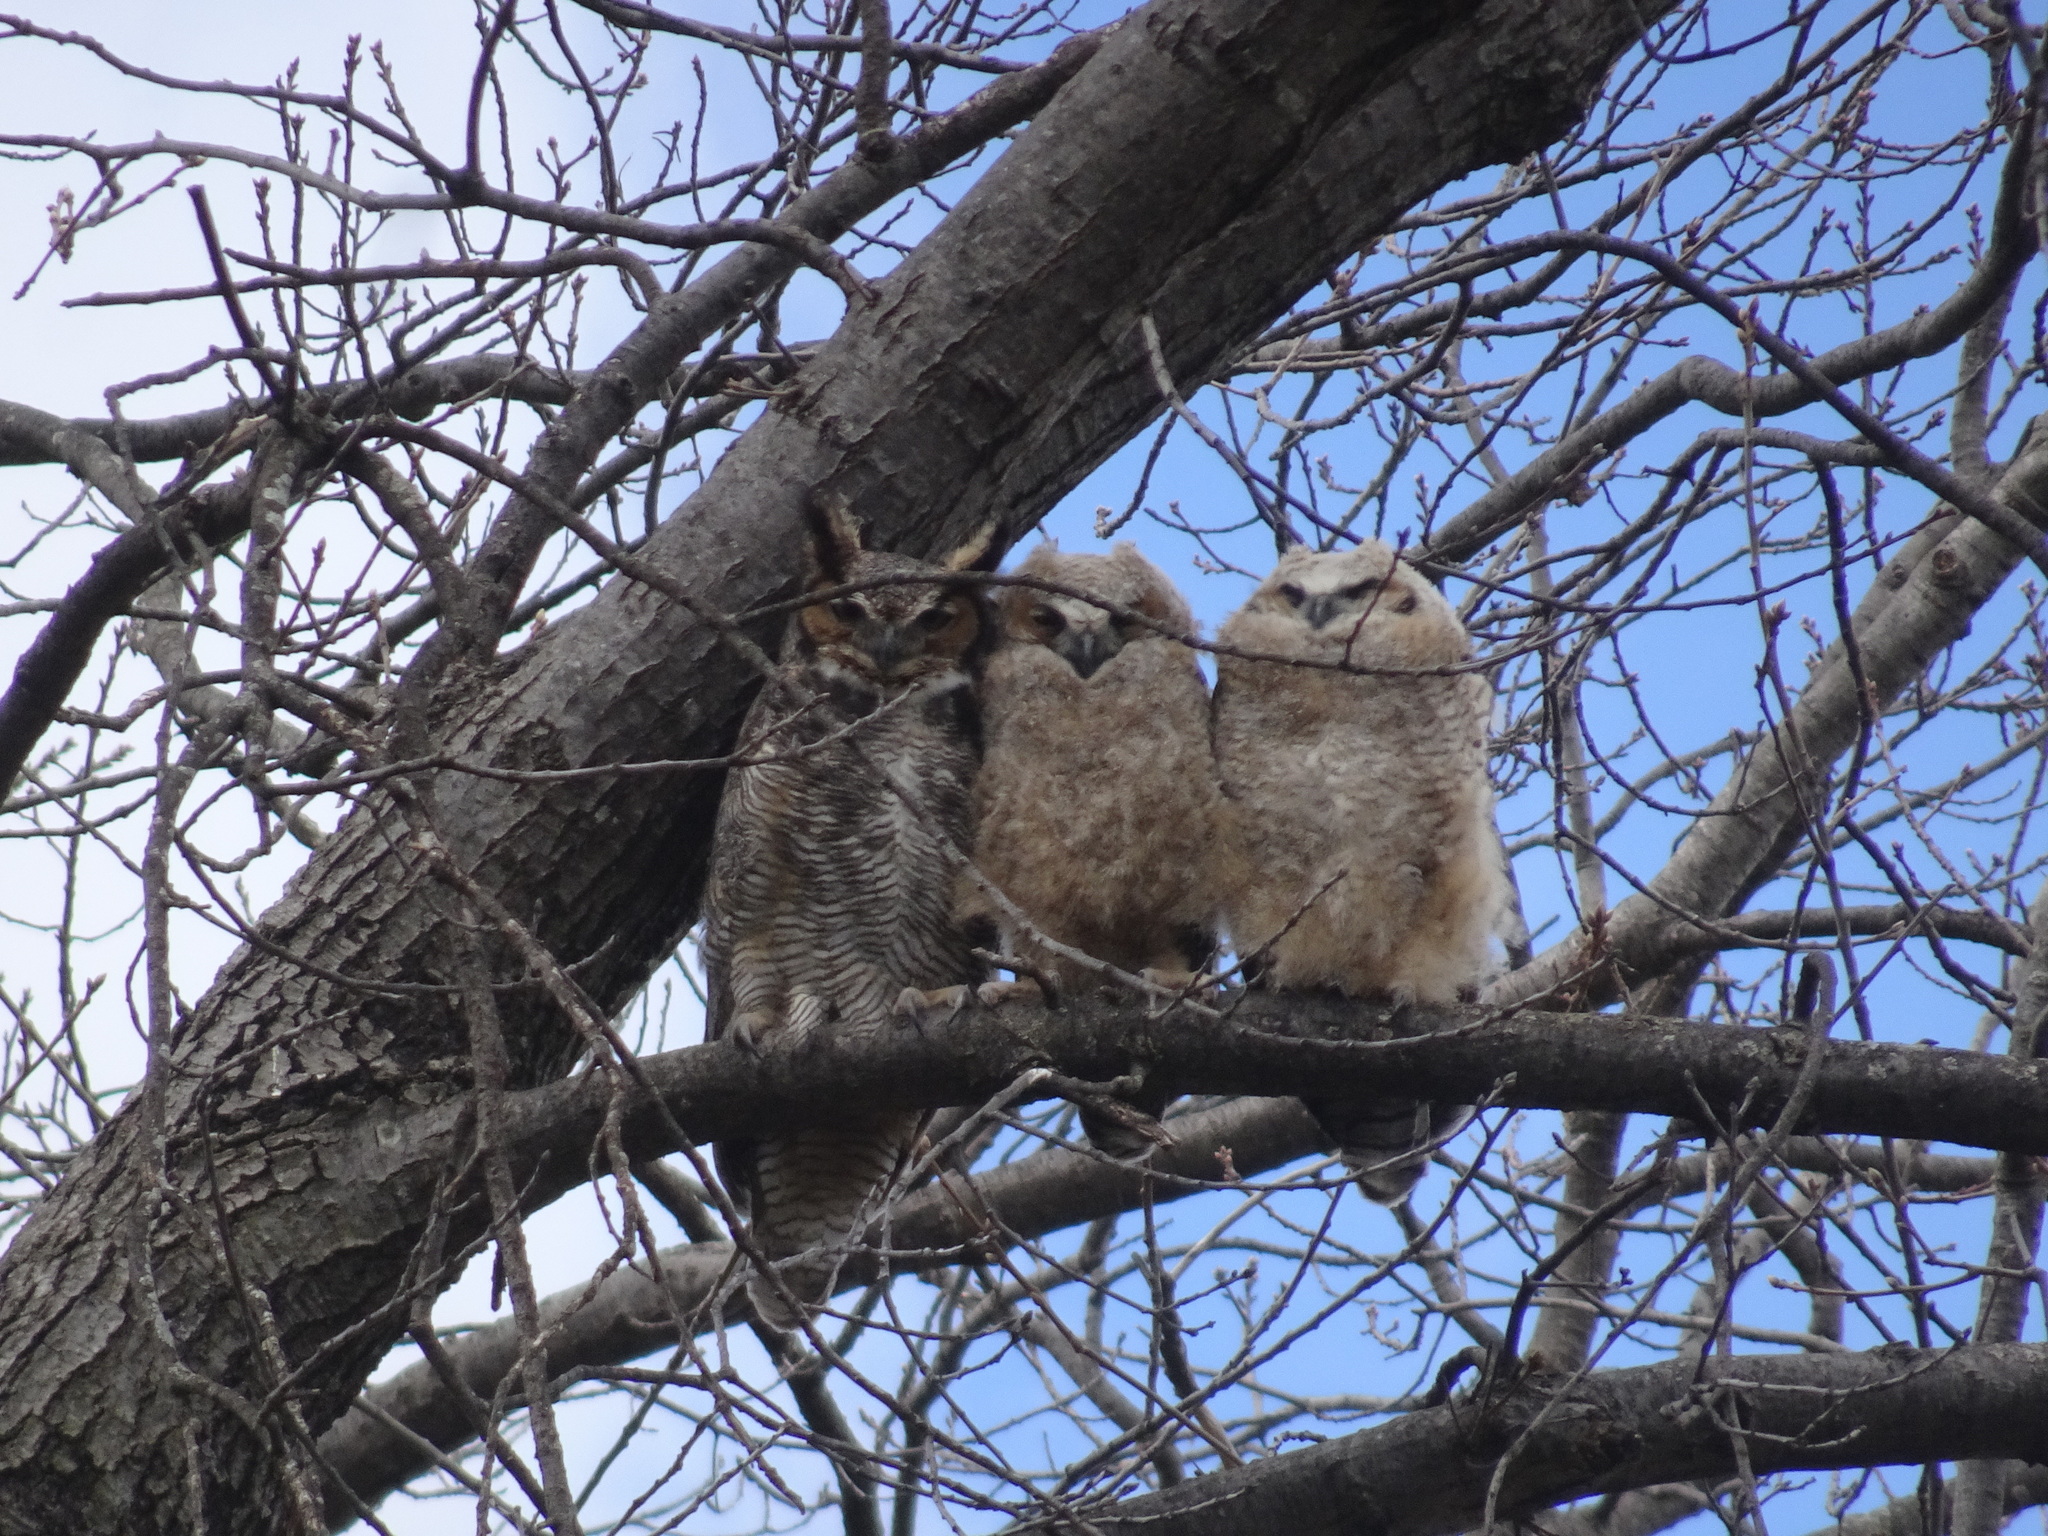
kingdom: Animalia
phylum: Chordata
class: Aves
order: Strigiformes
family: Strigidae
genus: Bubo
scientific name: Bubo virginianus
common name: Great horned owl
